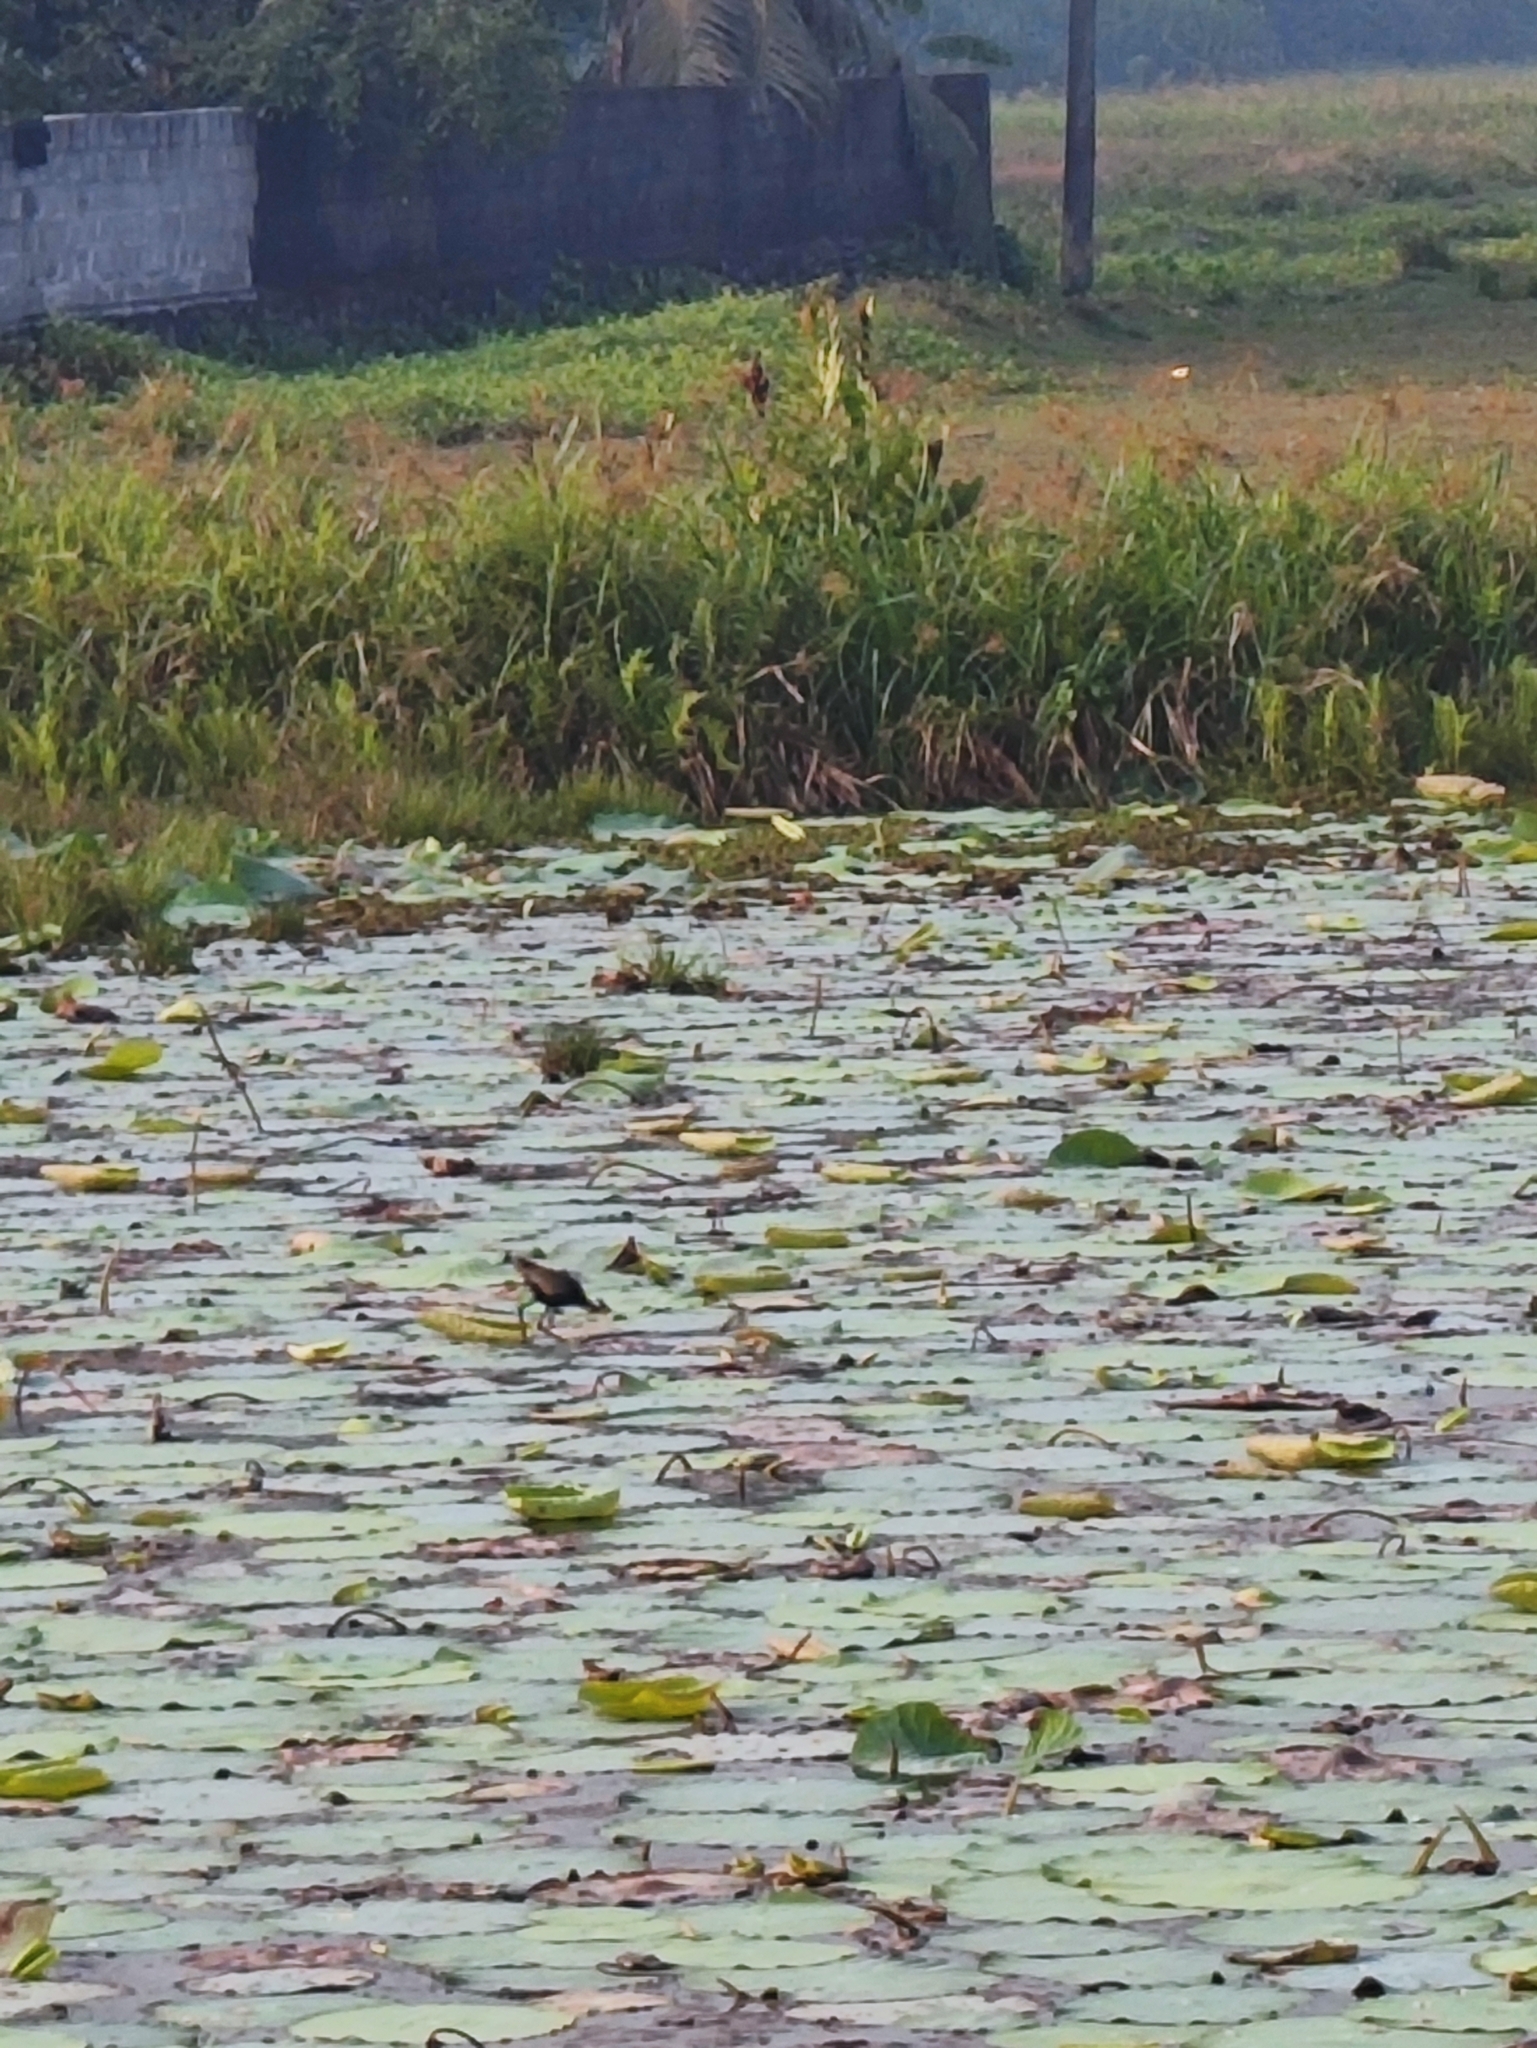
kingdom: Animalia
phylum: Chordata
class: Aves
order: Charadriiformes
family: Jacanidae
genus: Metopidius
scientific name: Metopidius indicus
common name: Bronze-winged jacana
